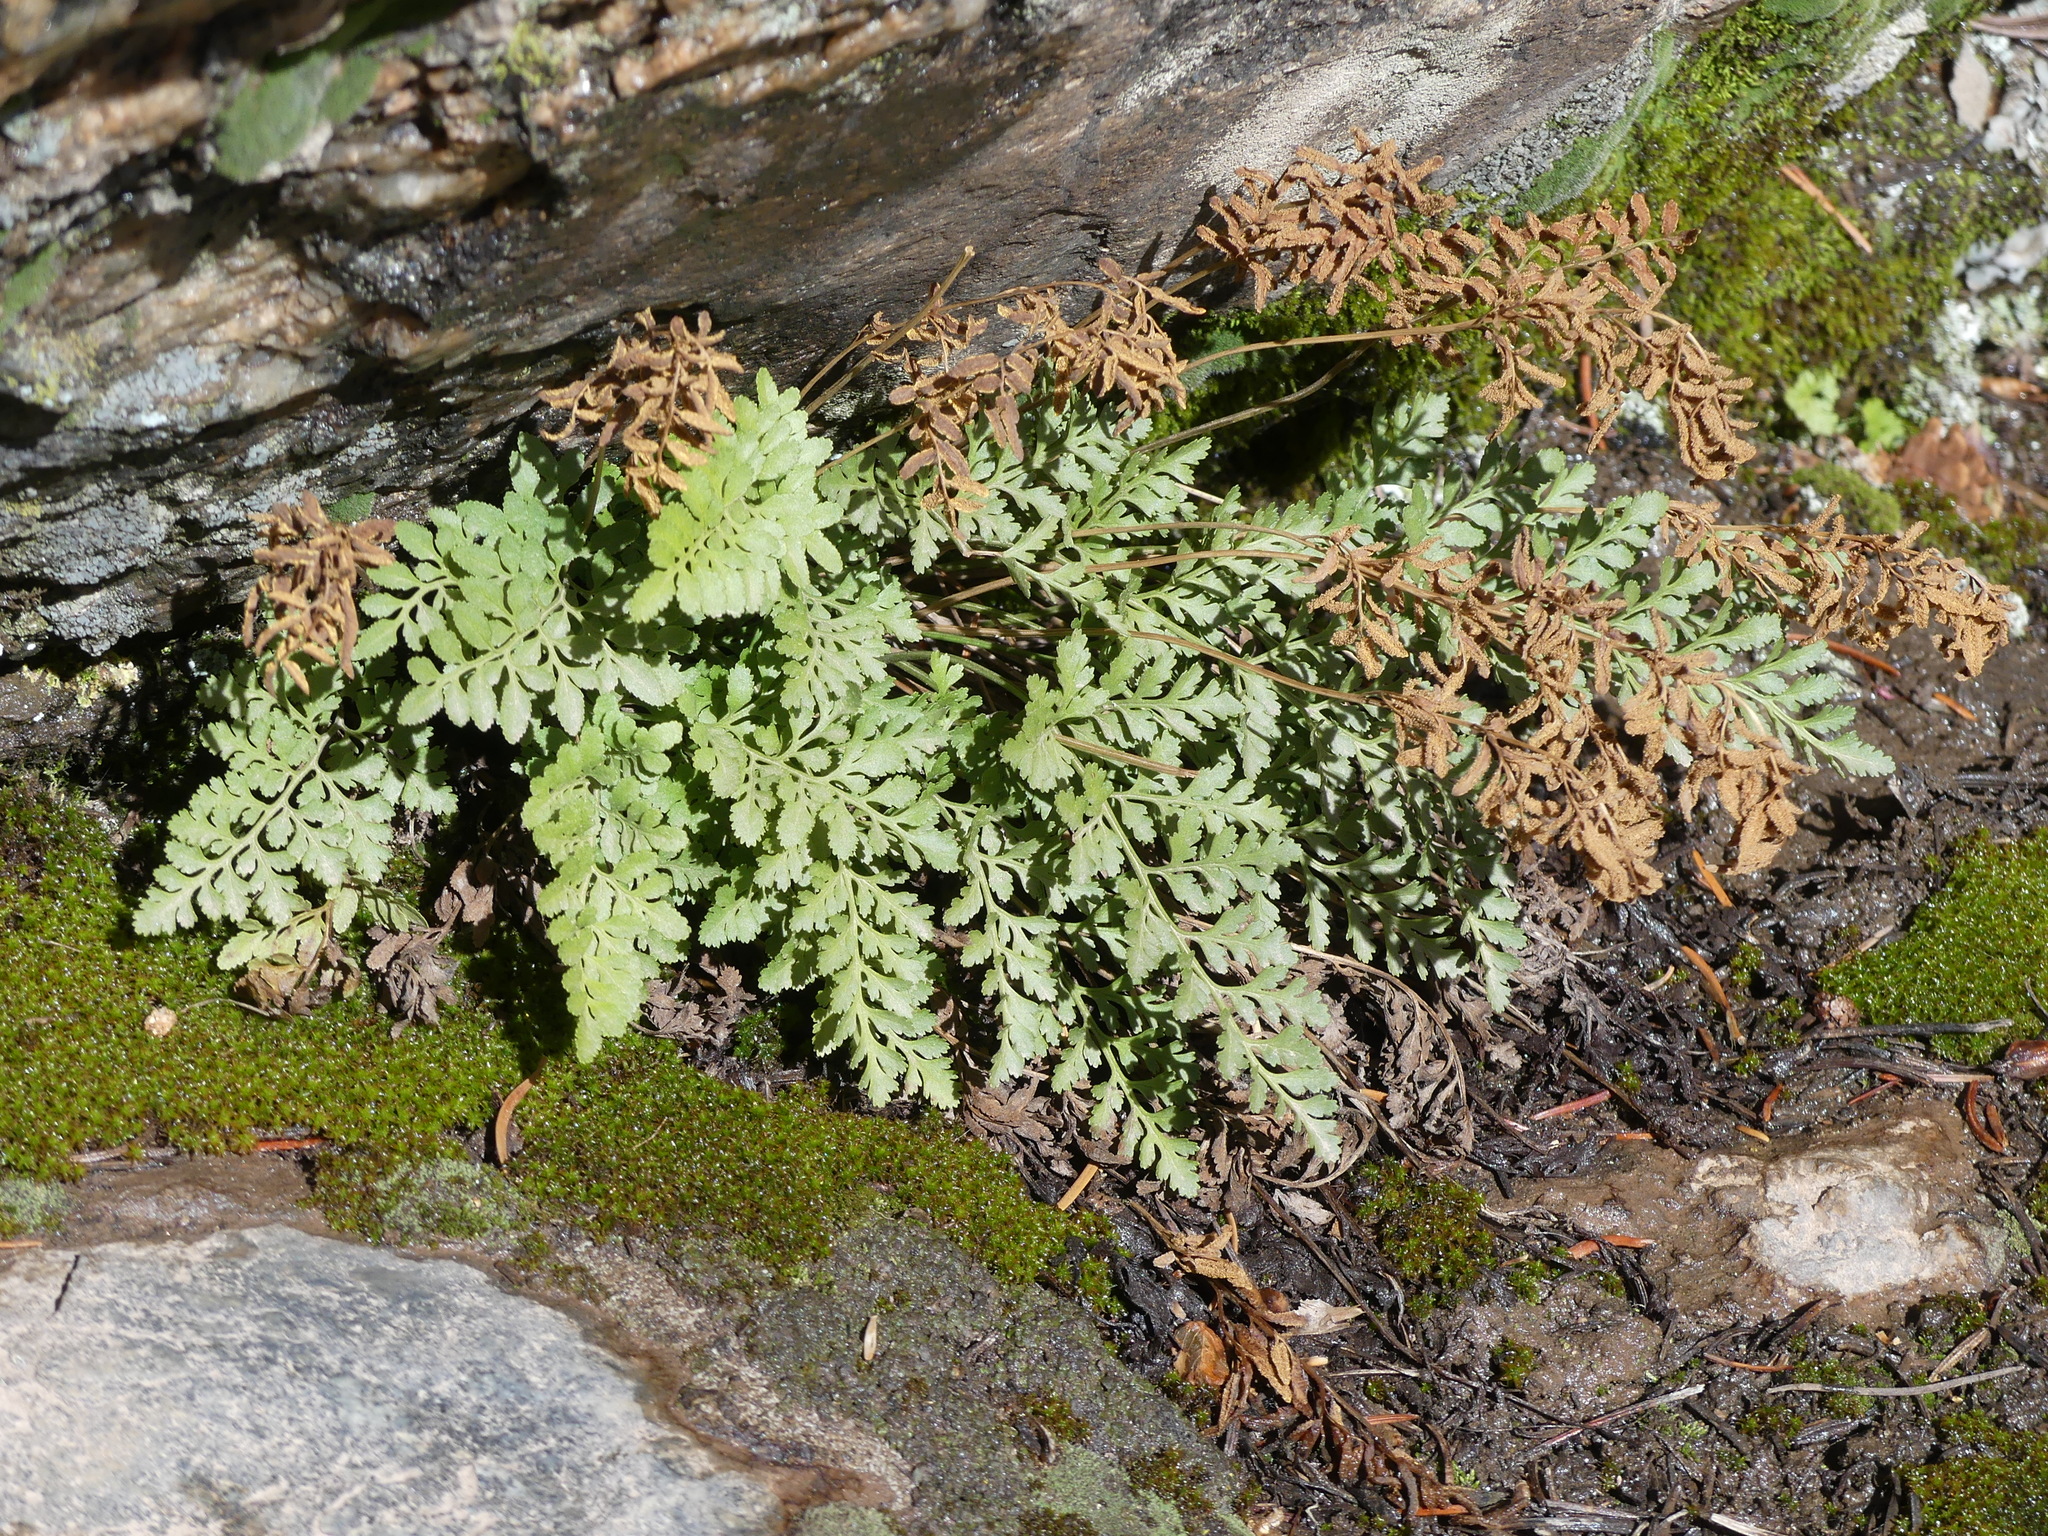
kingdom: Plantae
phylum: Tracheophyta
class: Polypodiopsida
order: Polypodiales
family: Pteridaceae
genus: Cryptogramma
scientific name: Cryptogramma acrostichoides
